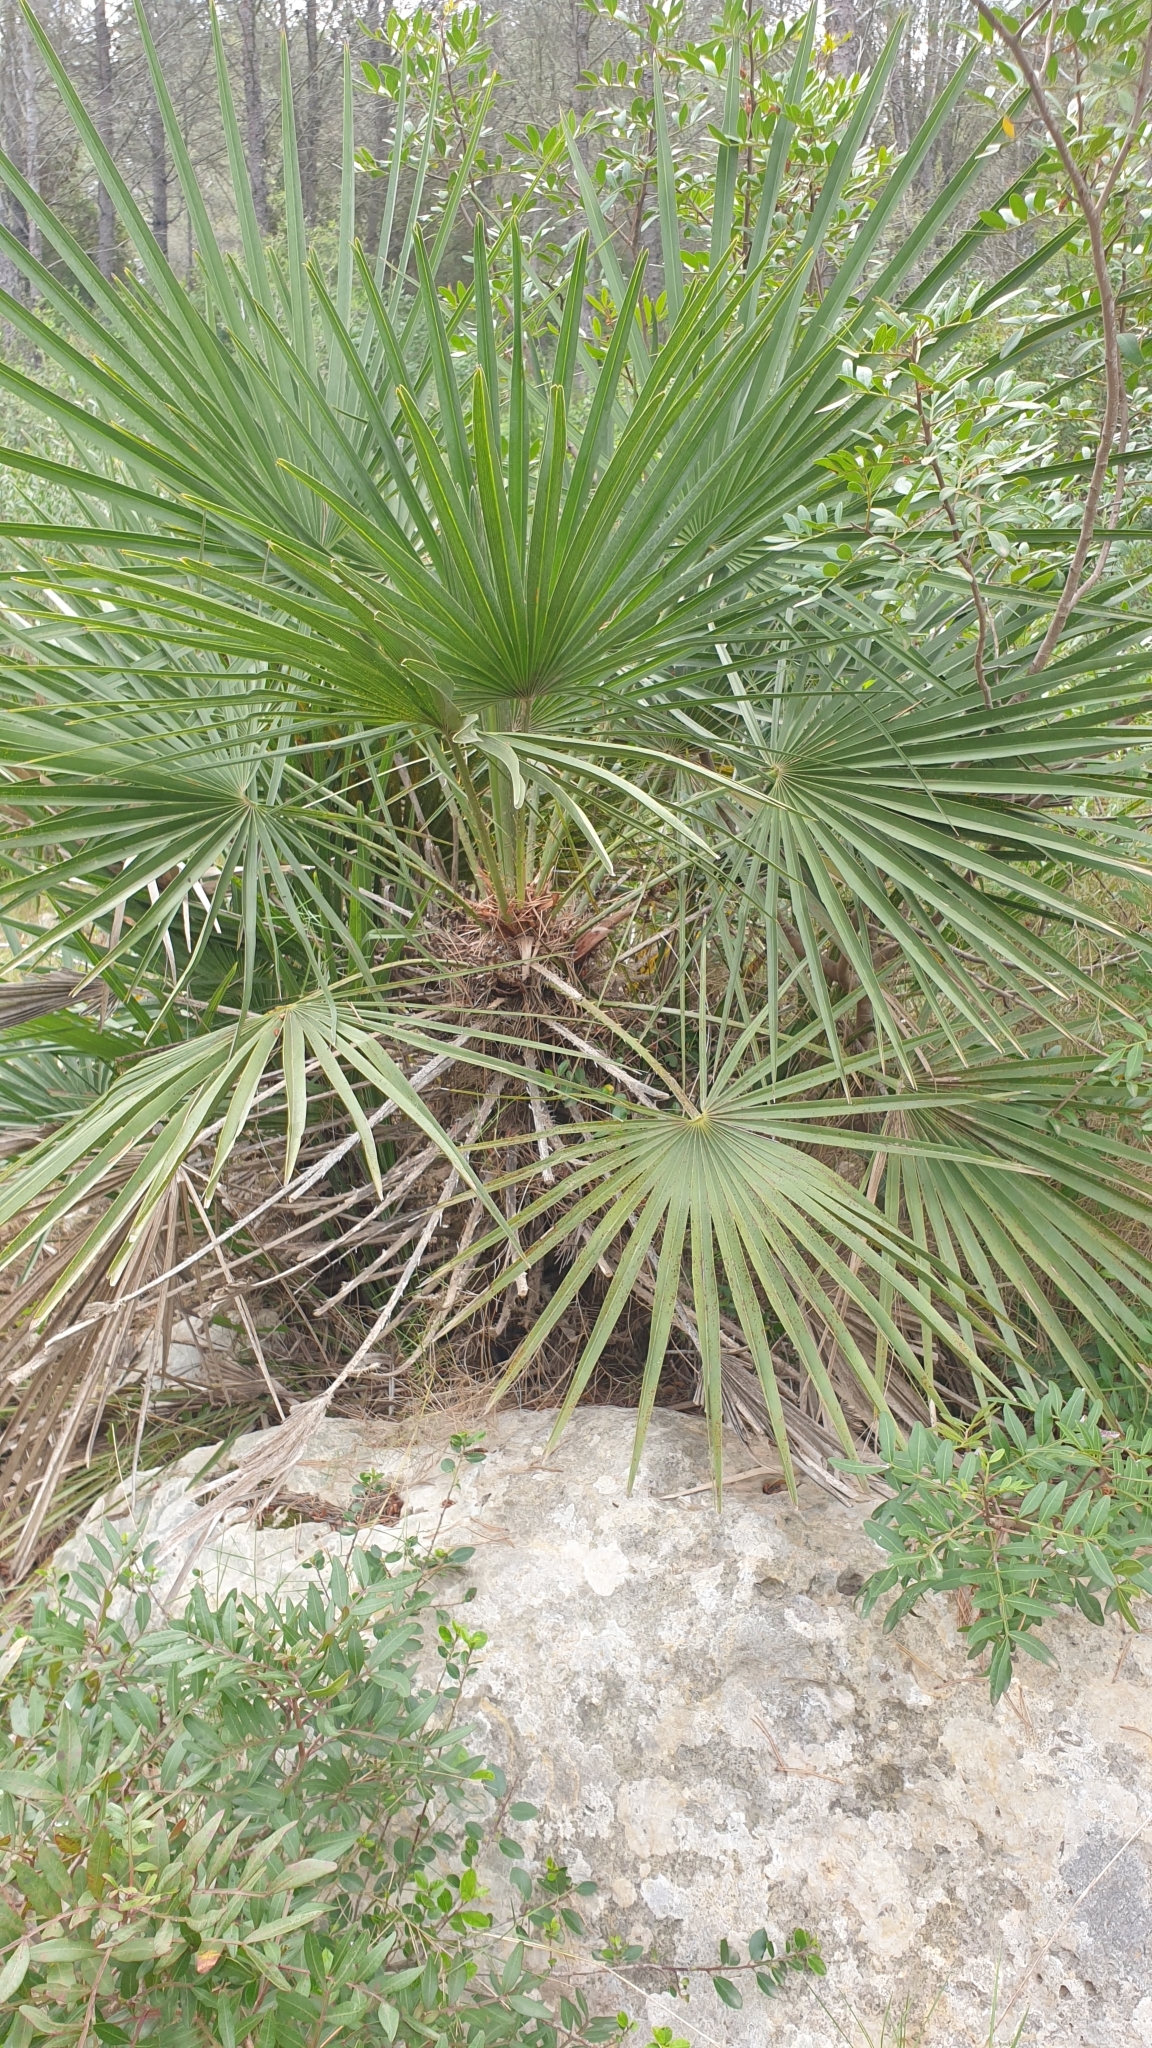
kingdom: Plantae
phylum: Tracheophyta
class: Liliopsida
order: Arecales
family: Arecaceae
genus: Chamaerops
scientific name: Chamaerops humilis
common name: Dwarf fan palm
